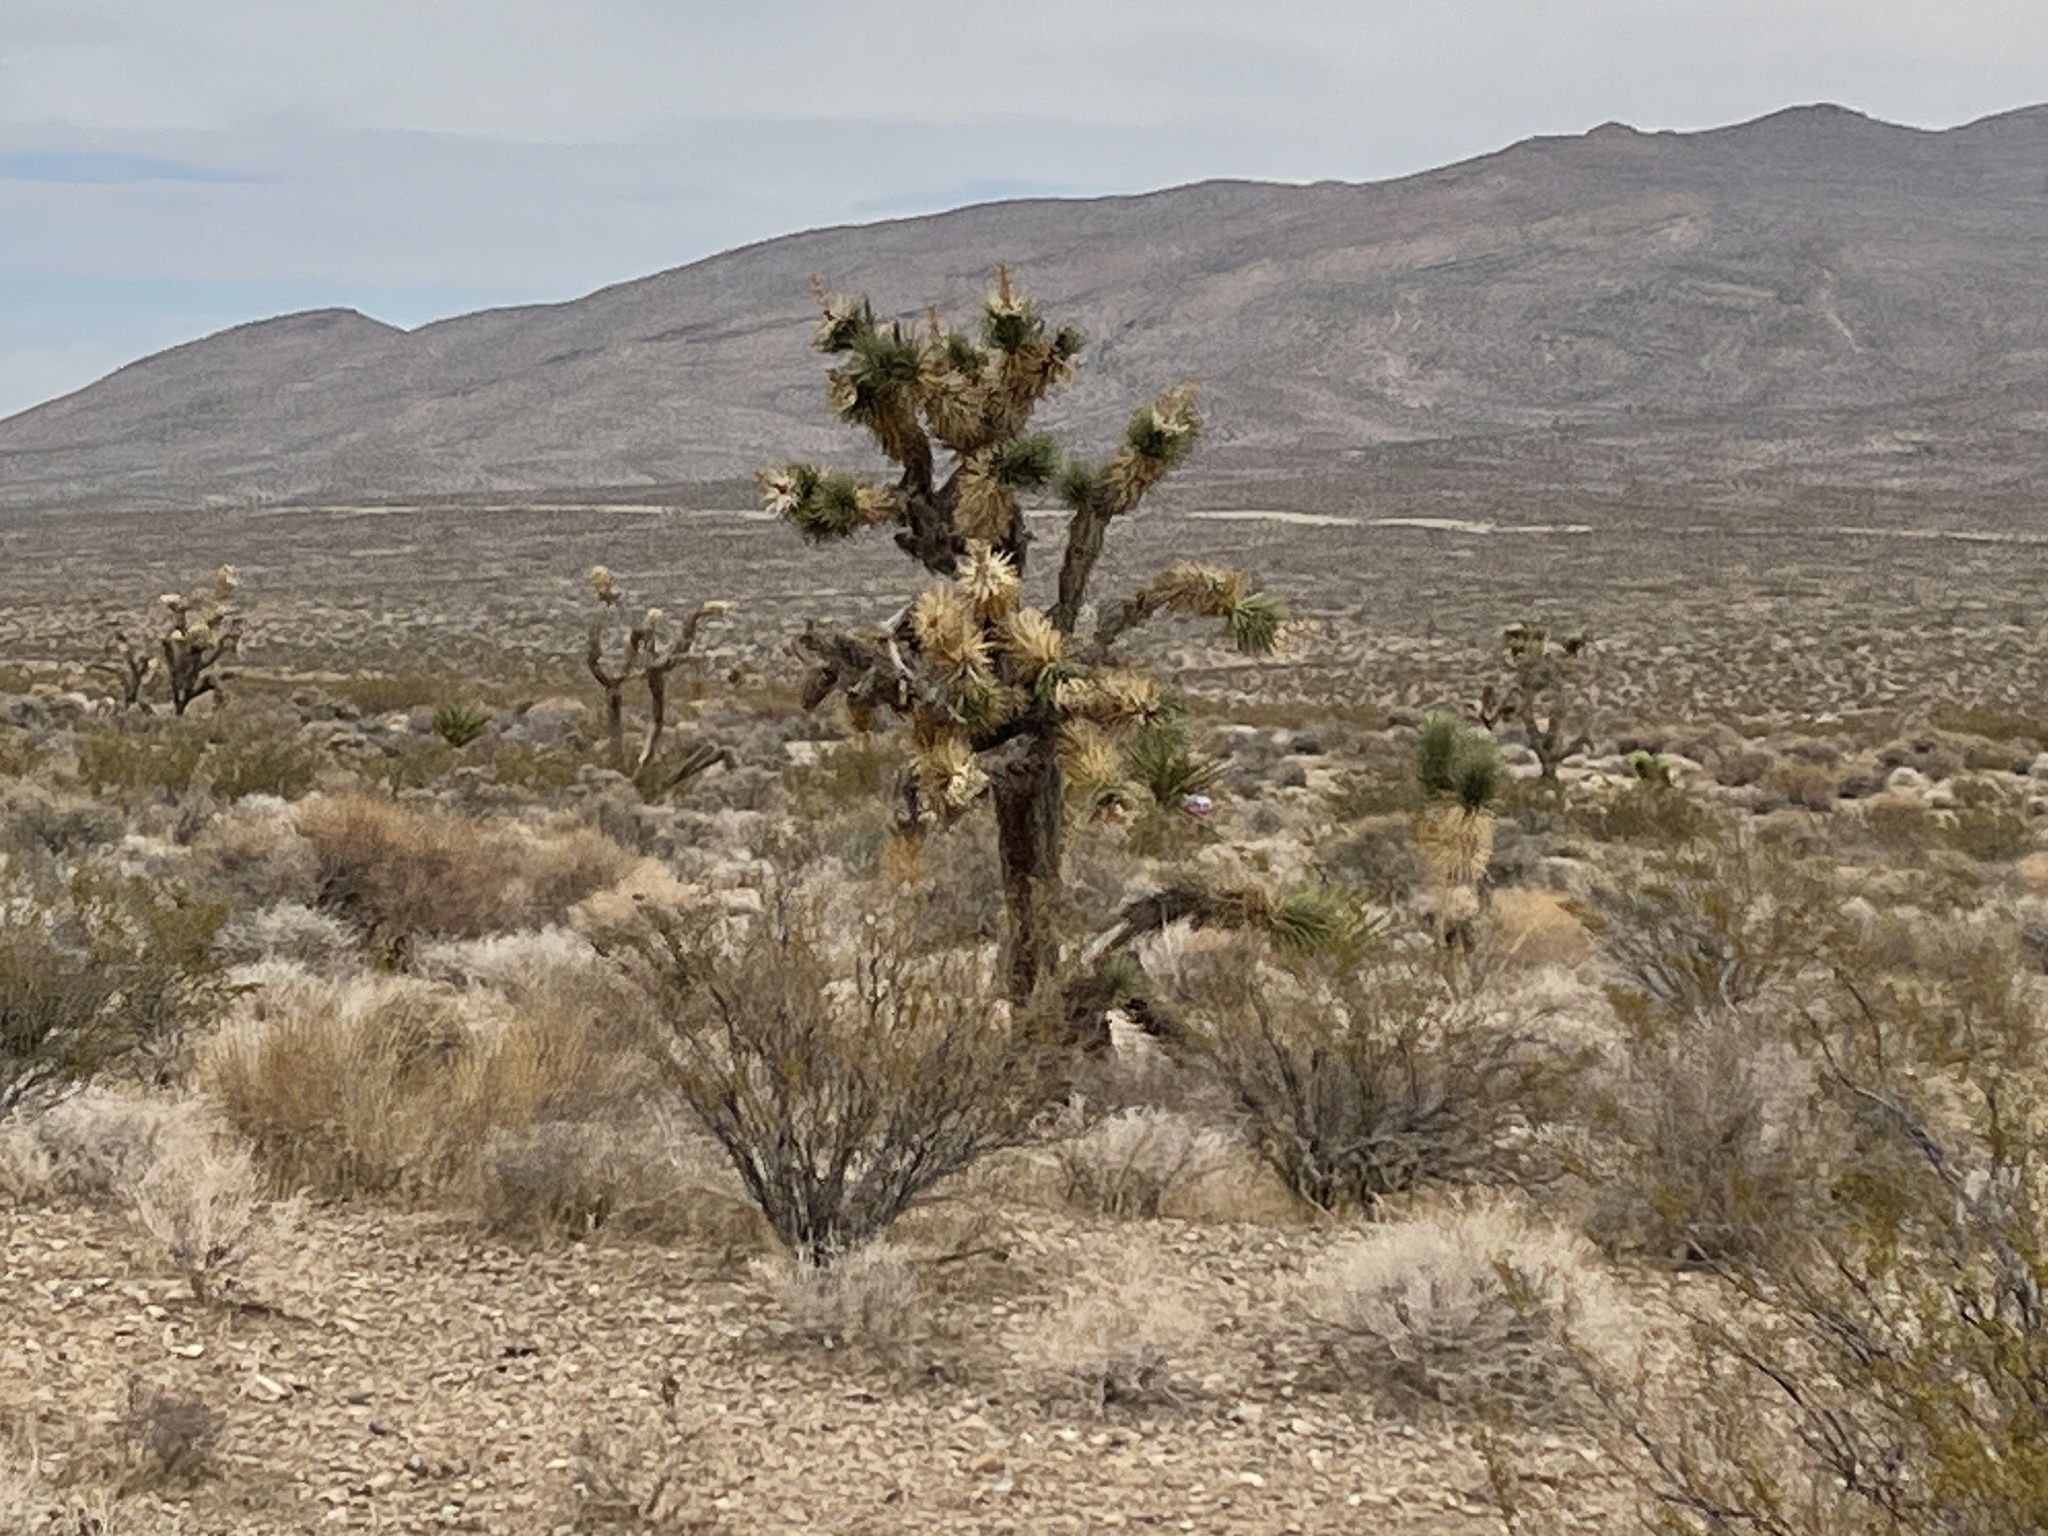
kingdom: Plantae
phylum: Tracheophyta
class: Liliopsida
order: Asparagales
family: Asparagaceae
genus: Yucca
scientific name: Yucca brevifolia
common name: Joshua tree
